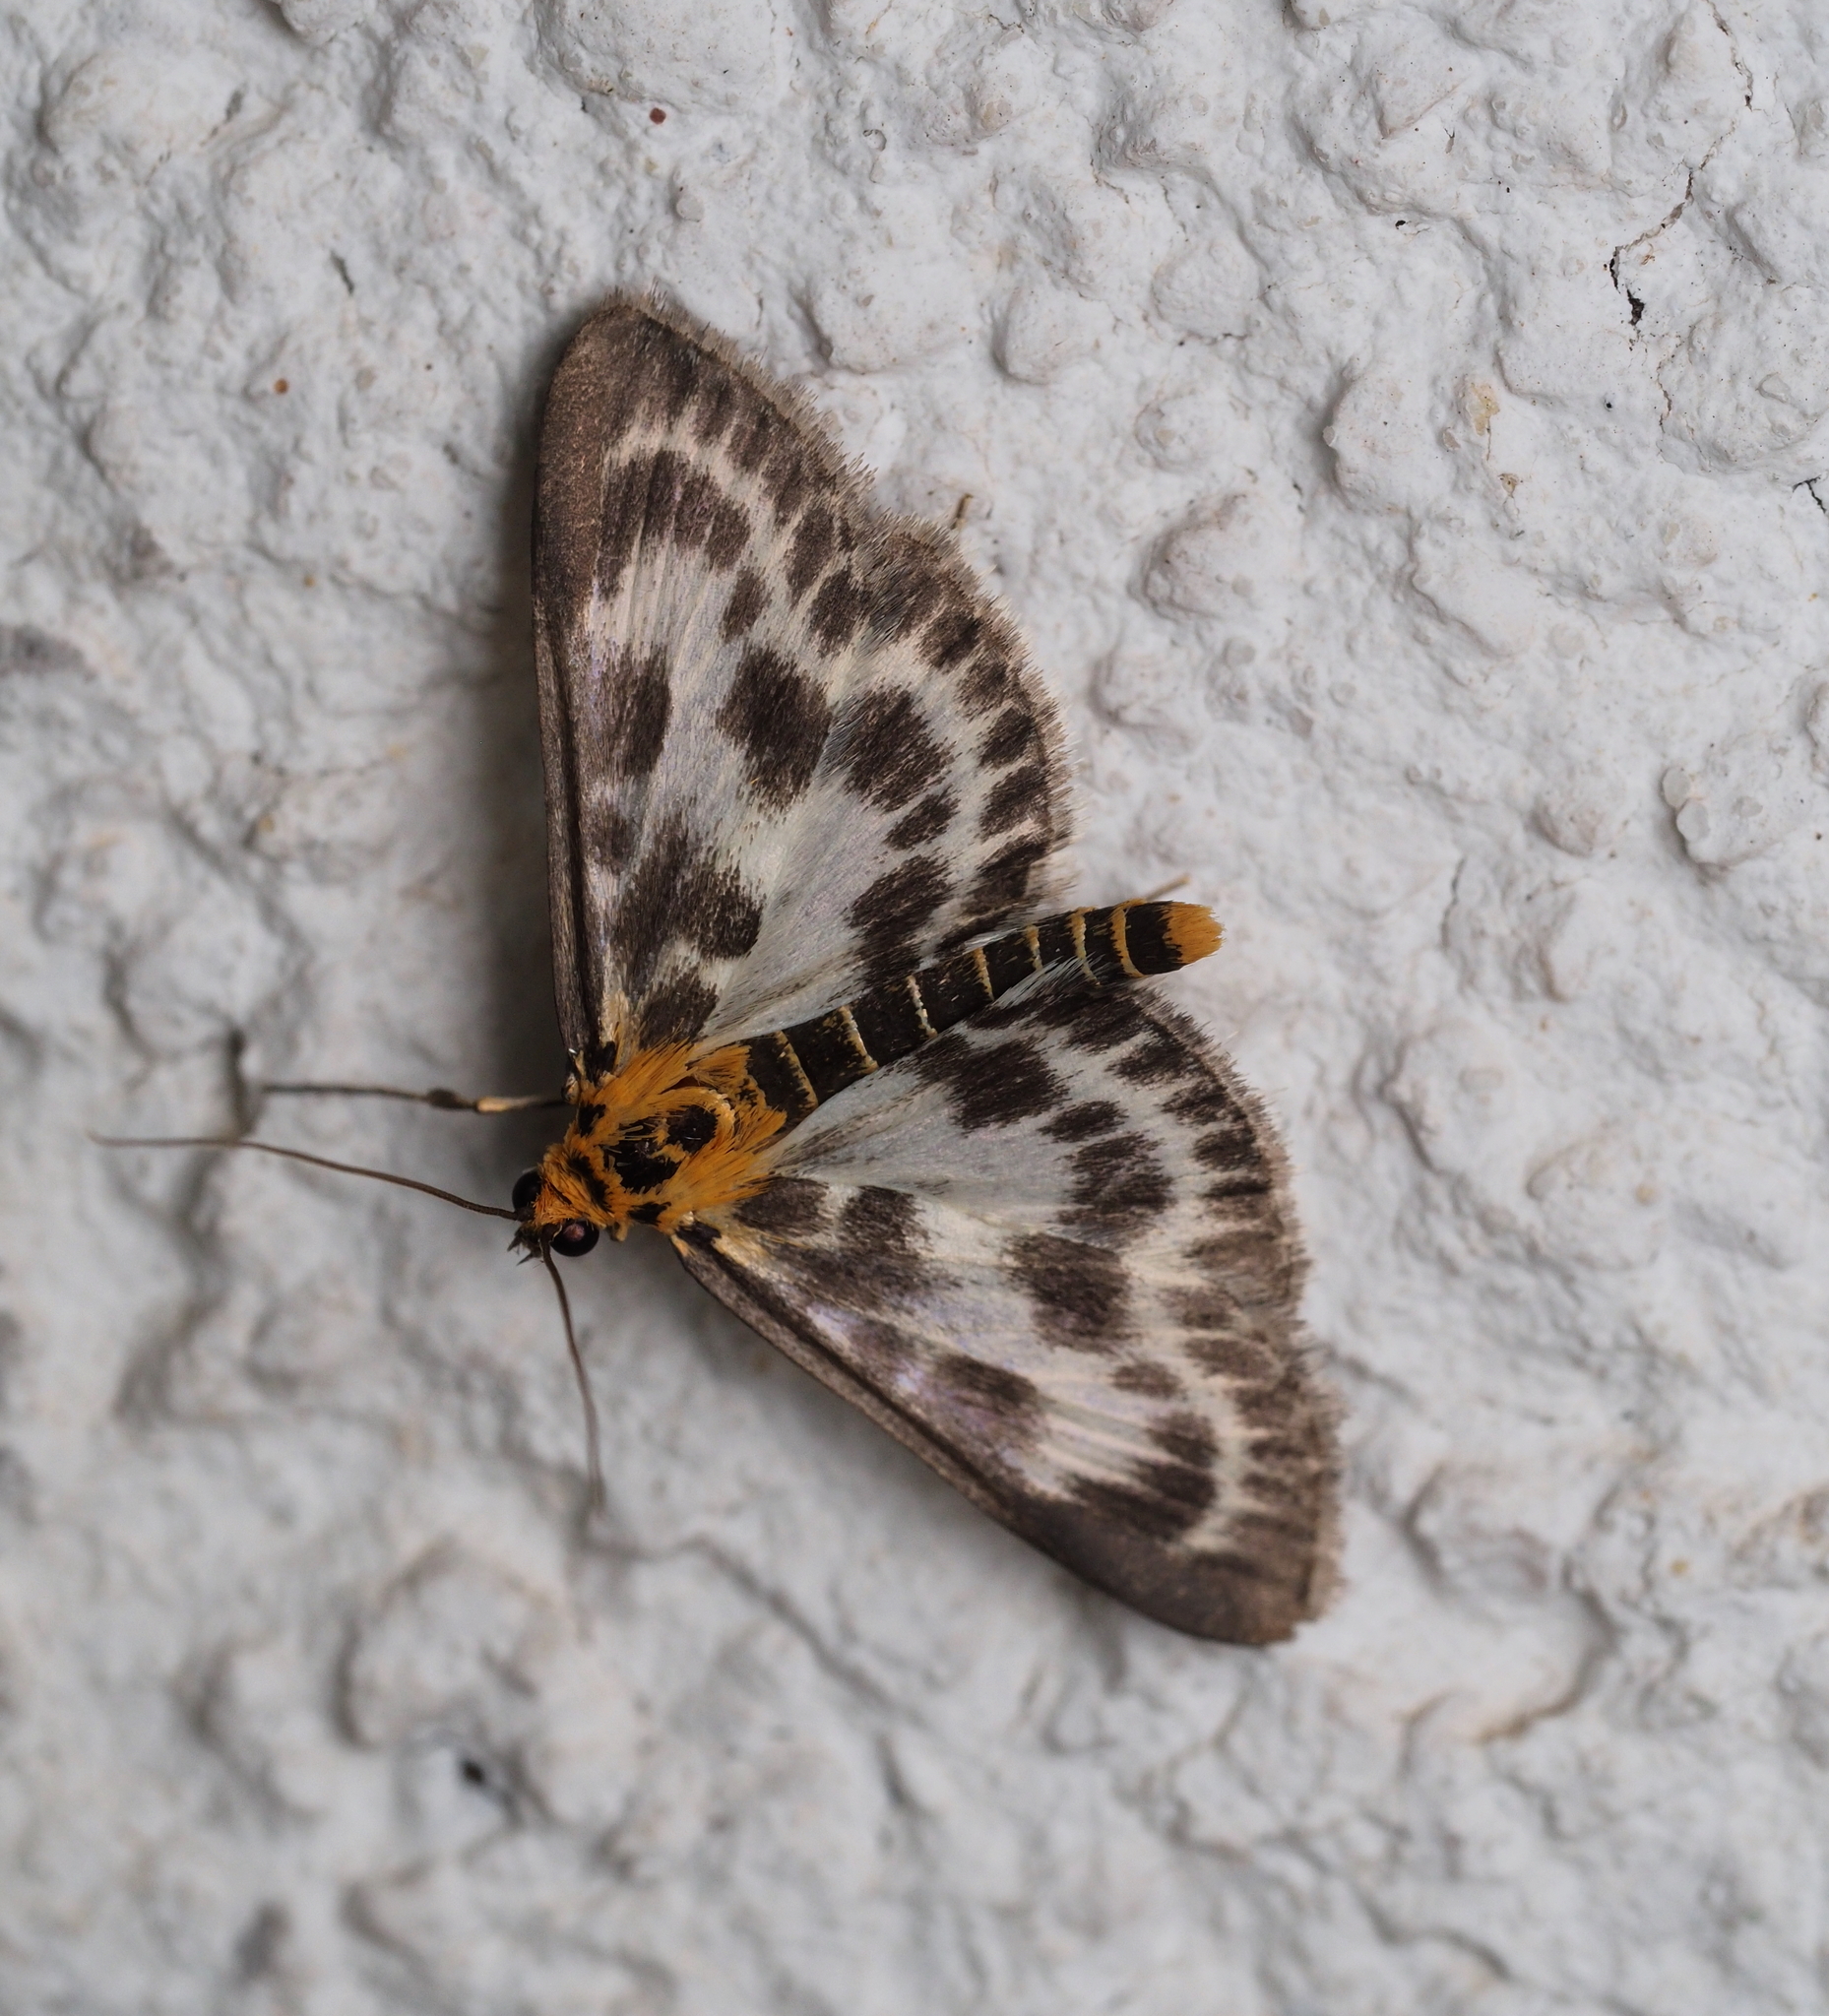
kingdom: Animalia
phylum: Arthropoda
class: Insecta
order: Lepidoptera
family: Crambidae
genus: Anania
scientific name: Anania hortulata
